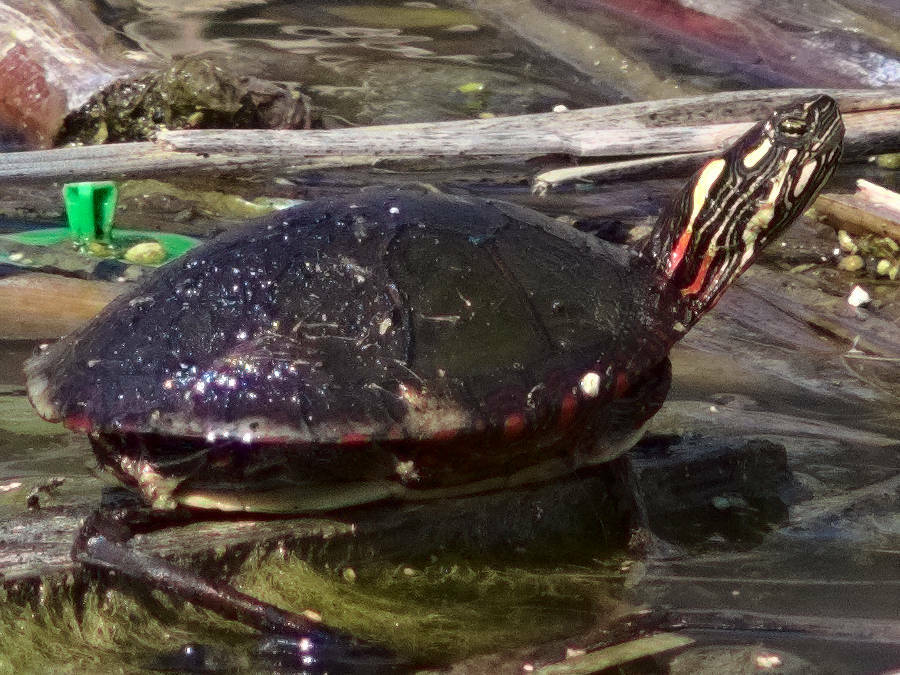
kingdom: Animalia
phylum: Chordata
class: Testudines
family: Emydidae
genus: Chrysemys
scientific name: Chrysemys picta
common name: Painted turtle
